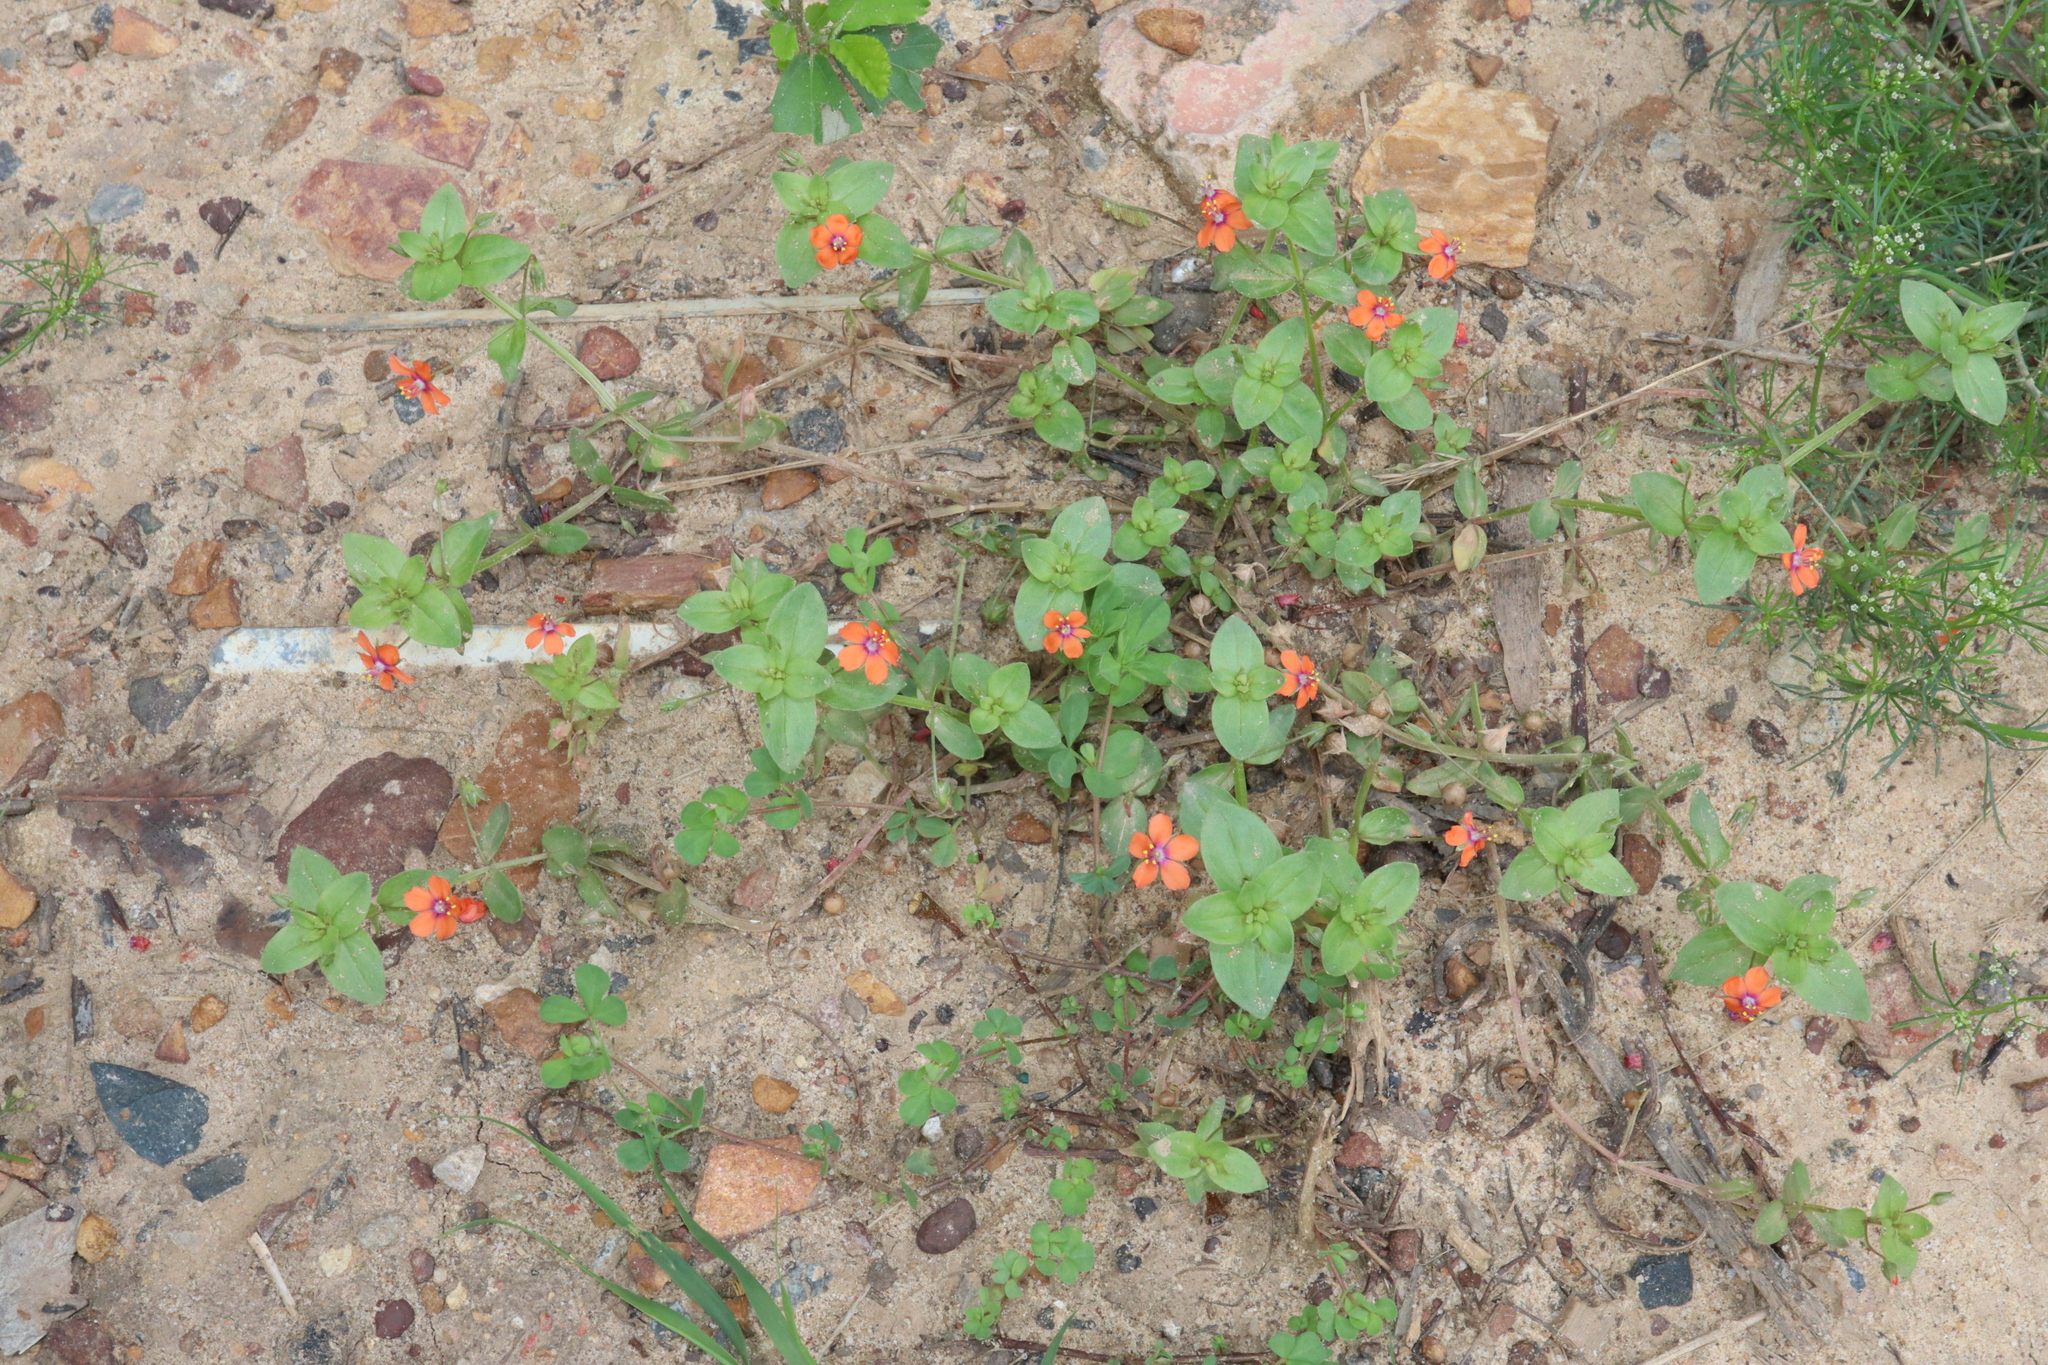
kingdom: Plantae
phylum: Tracheophyta
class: Magnoliopsida
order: Ericales
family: Primulaceae
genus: Lysimachia
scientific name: Lysimachia arvensis
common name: Scarlet pimpernel
